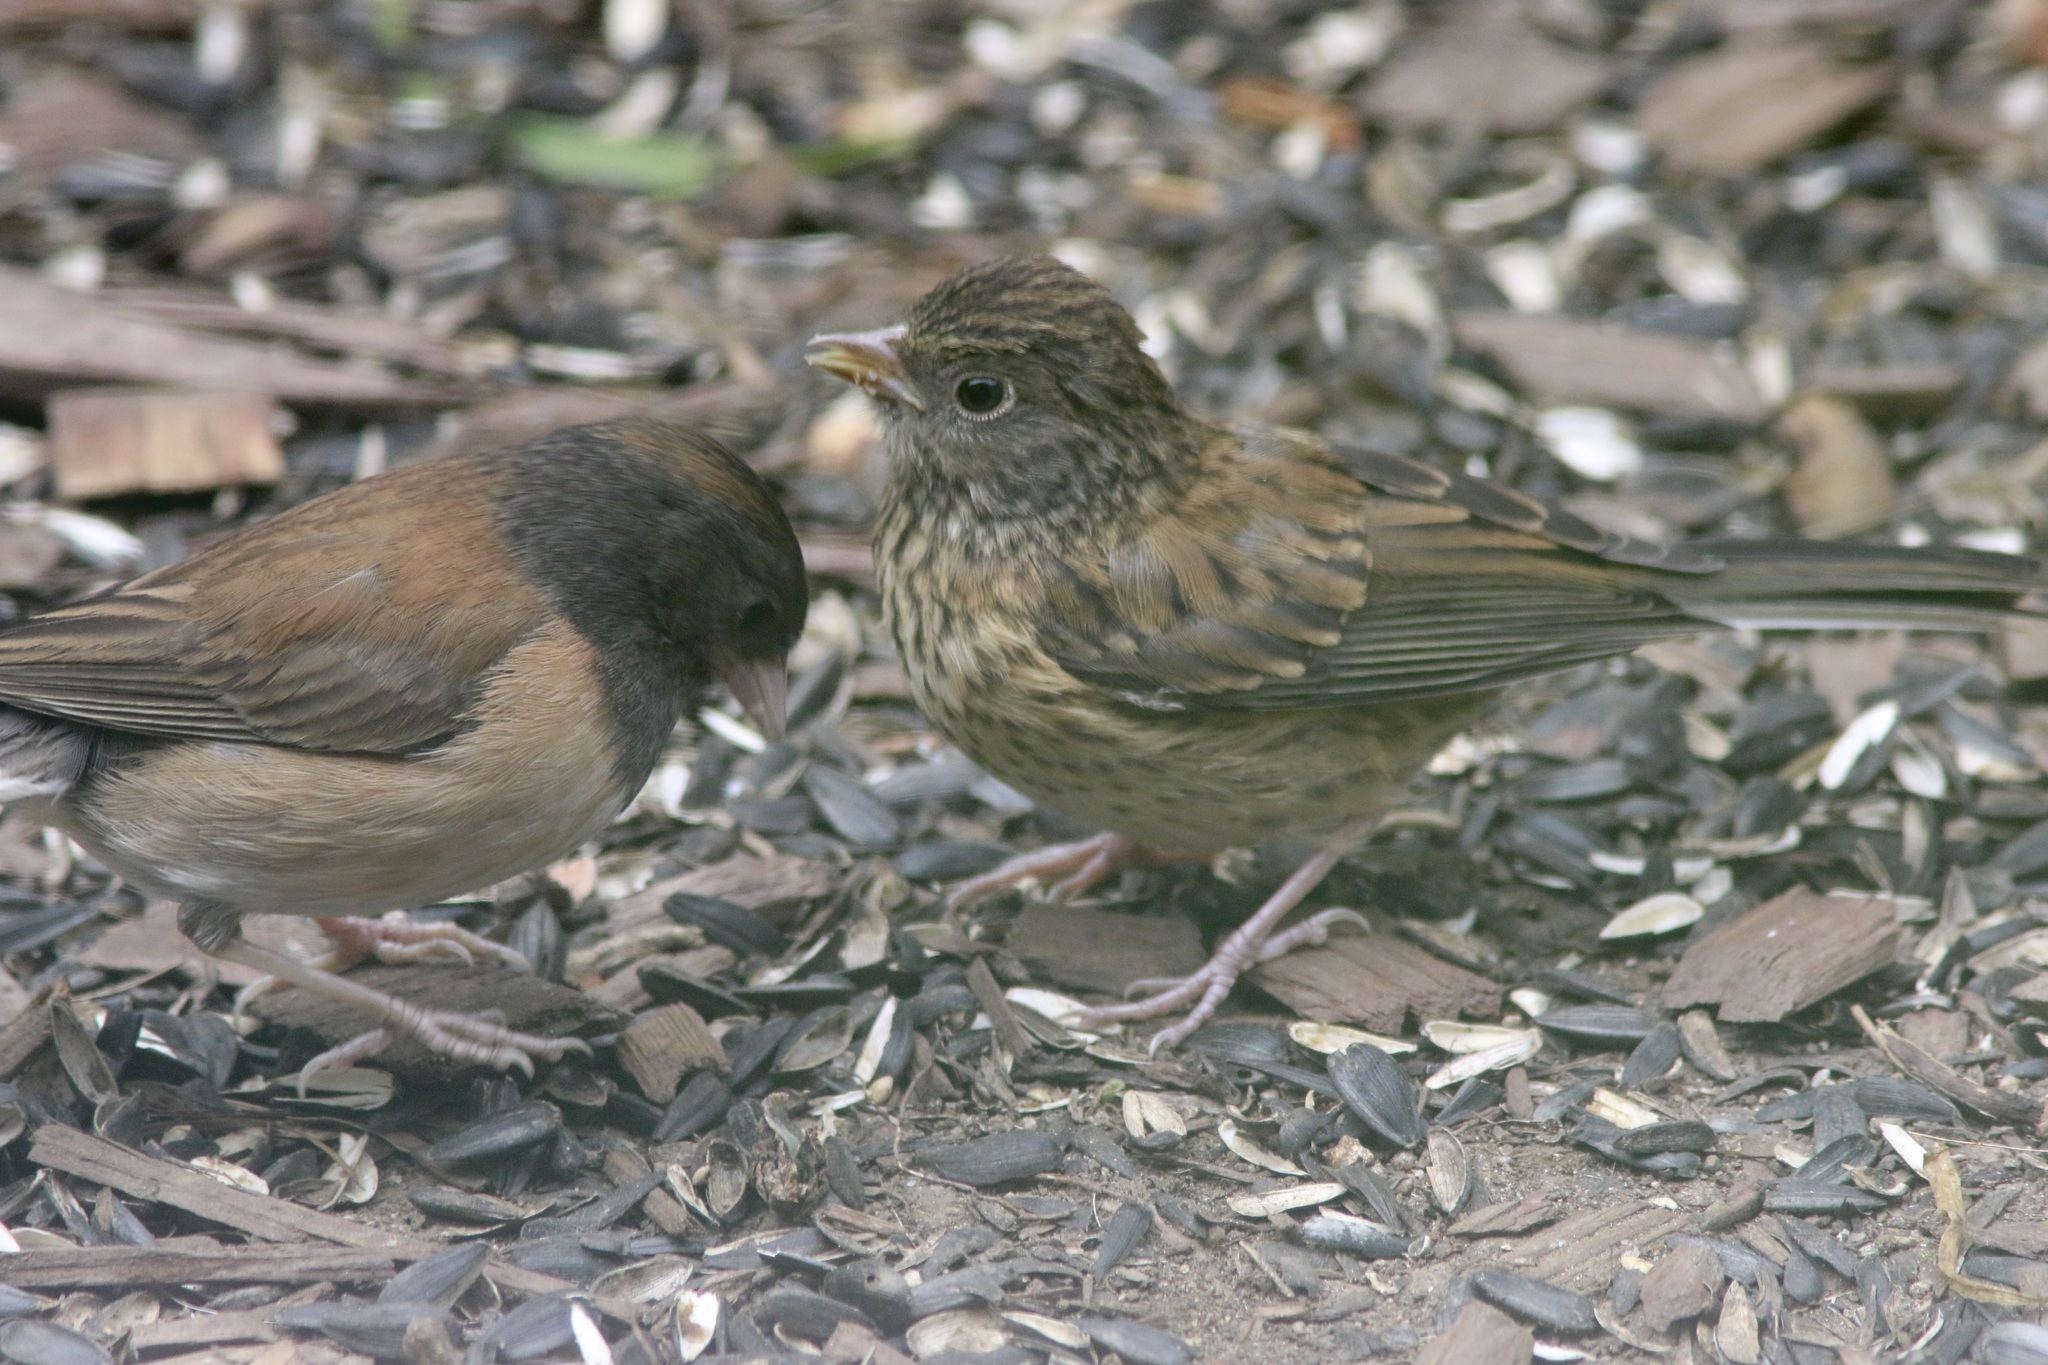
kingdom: Animalia
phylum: Chordata
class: Aves
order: Passeriformes
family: Passerellidae
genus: Junco
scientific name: Junco hyemalis
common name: Dark-eyed junco
